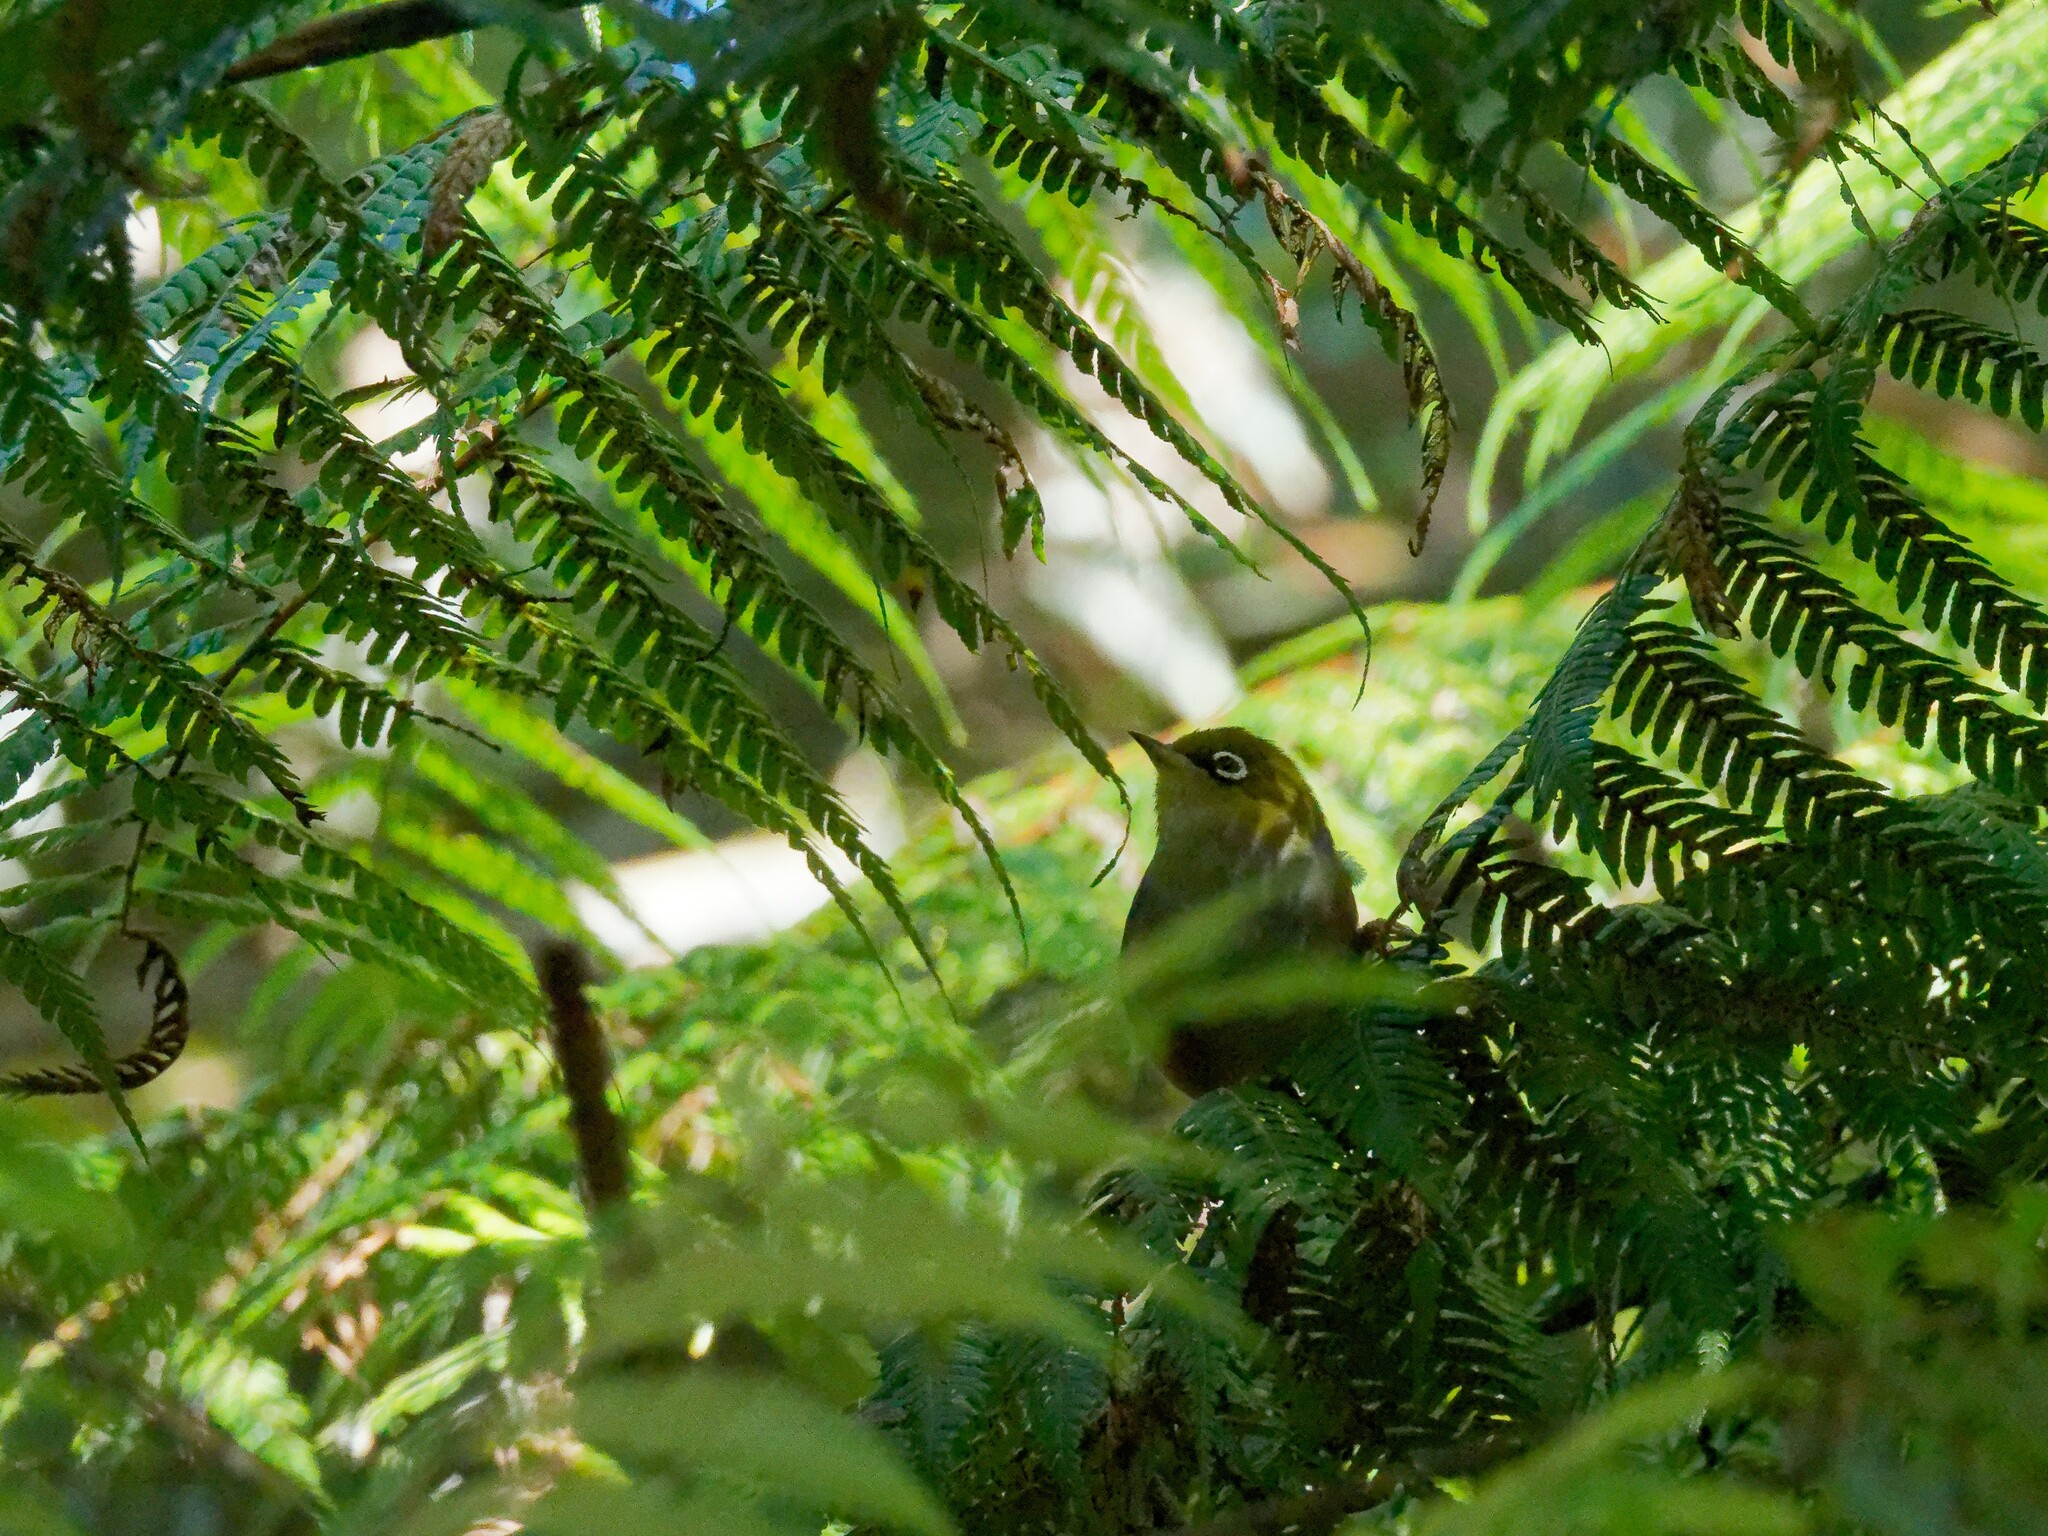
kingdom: Animalia
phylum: Chordata
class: Aves
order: Passeriformes
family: Zosteropidae
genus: Zosterops
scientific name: Zosterops lateralis
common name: Silvereye
